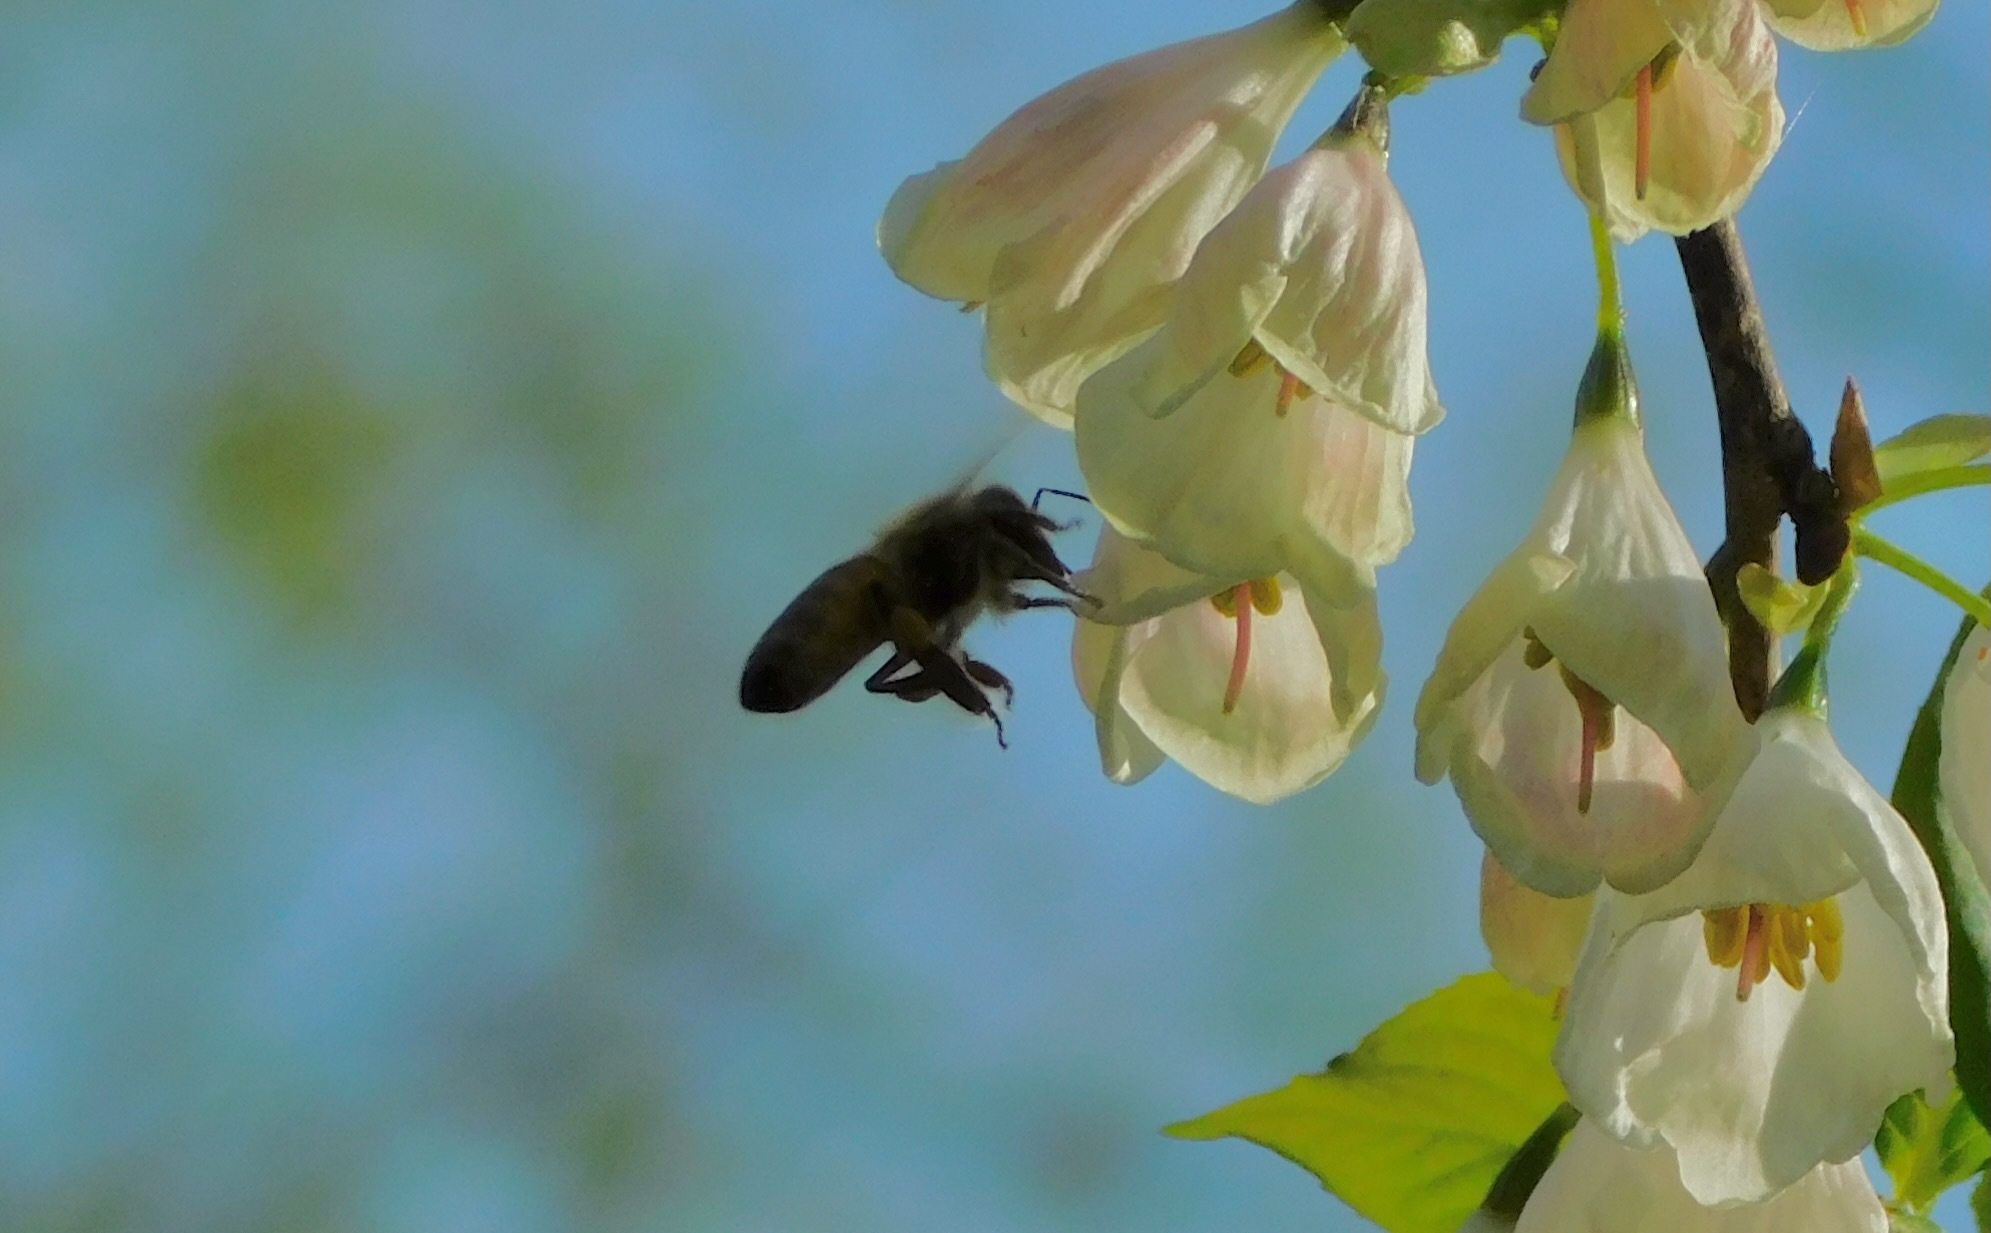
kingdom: Animalia
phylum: Arthropoda
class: Insecta
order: Hymenoptera
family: Apidae
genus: Apis
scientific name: Apis mellifera
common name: Honey bee
